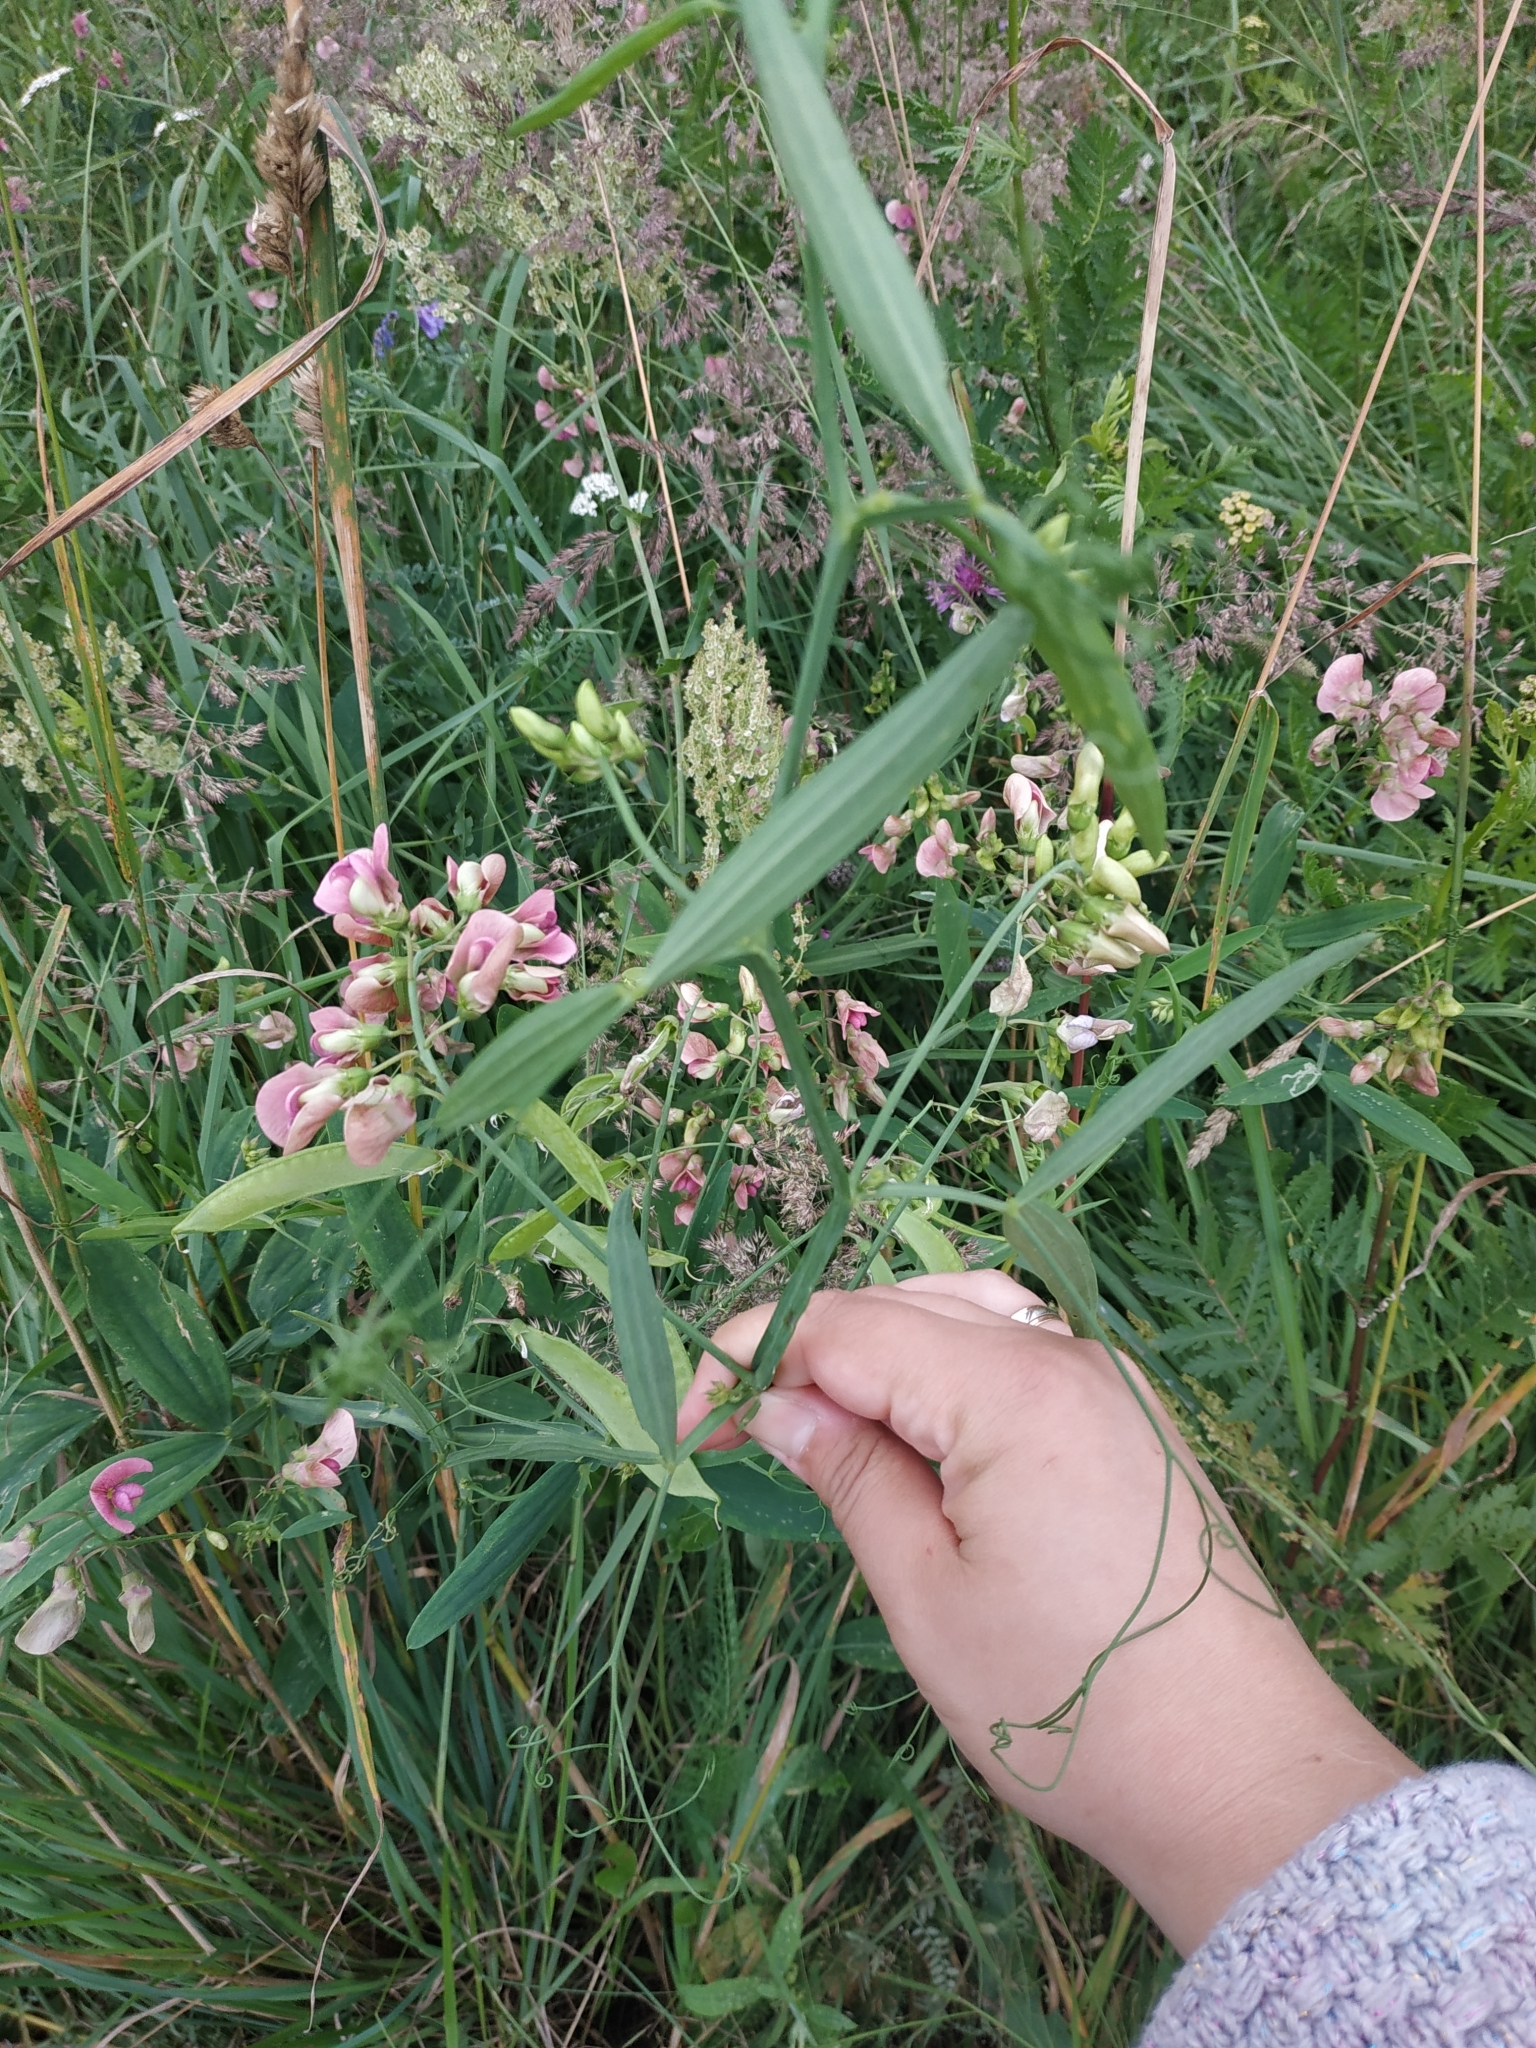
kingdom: Plantae
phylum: Tracheophyta
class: Magnoliopsida
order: Fabales
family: Fabaceae
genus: Lathyrus
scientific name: Lathyrus sylvestris
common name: Flat pea
